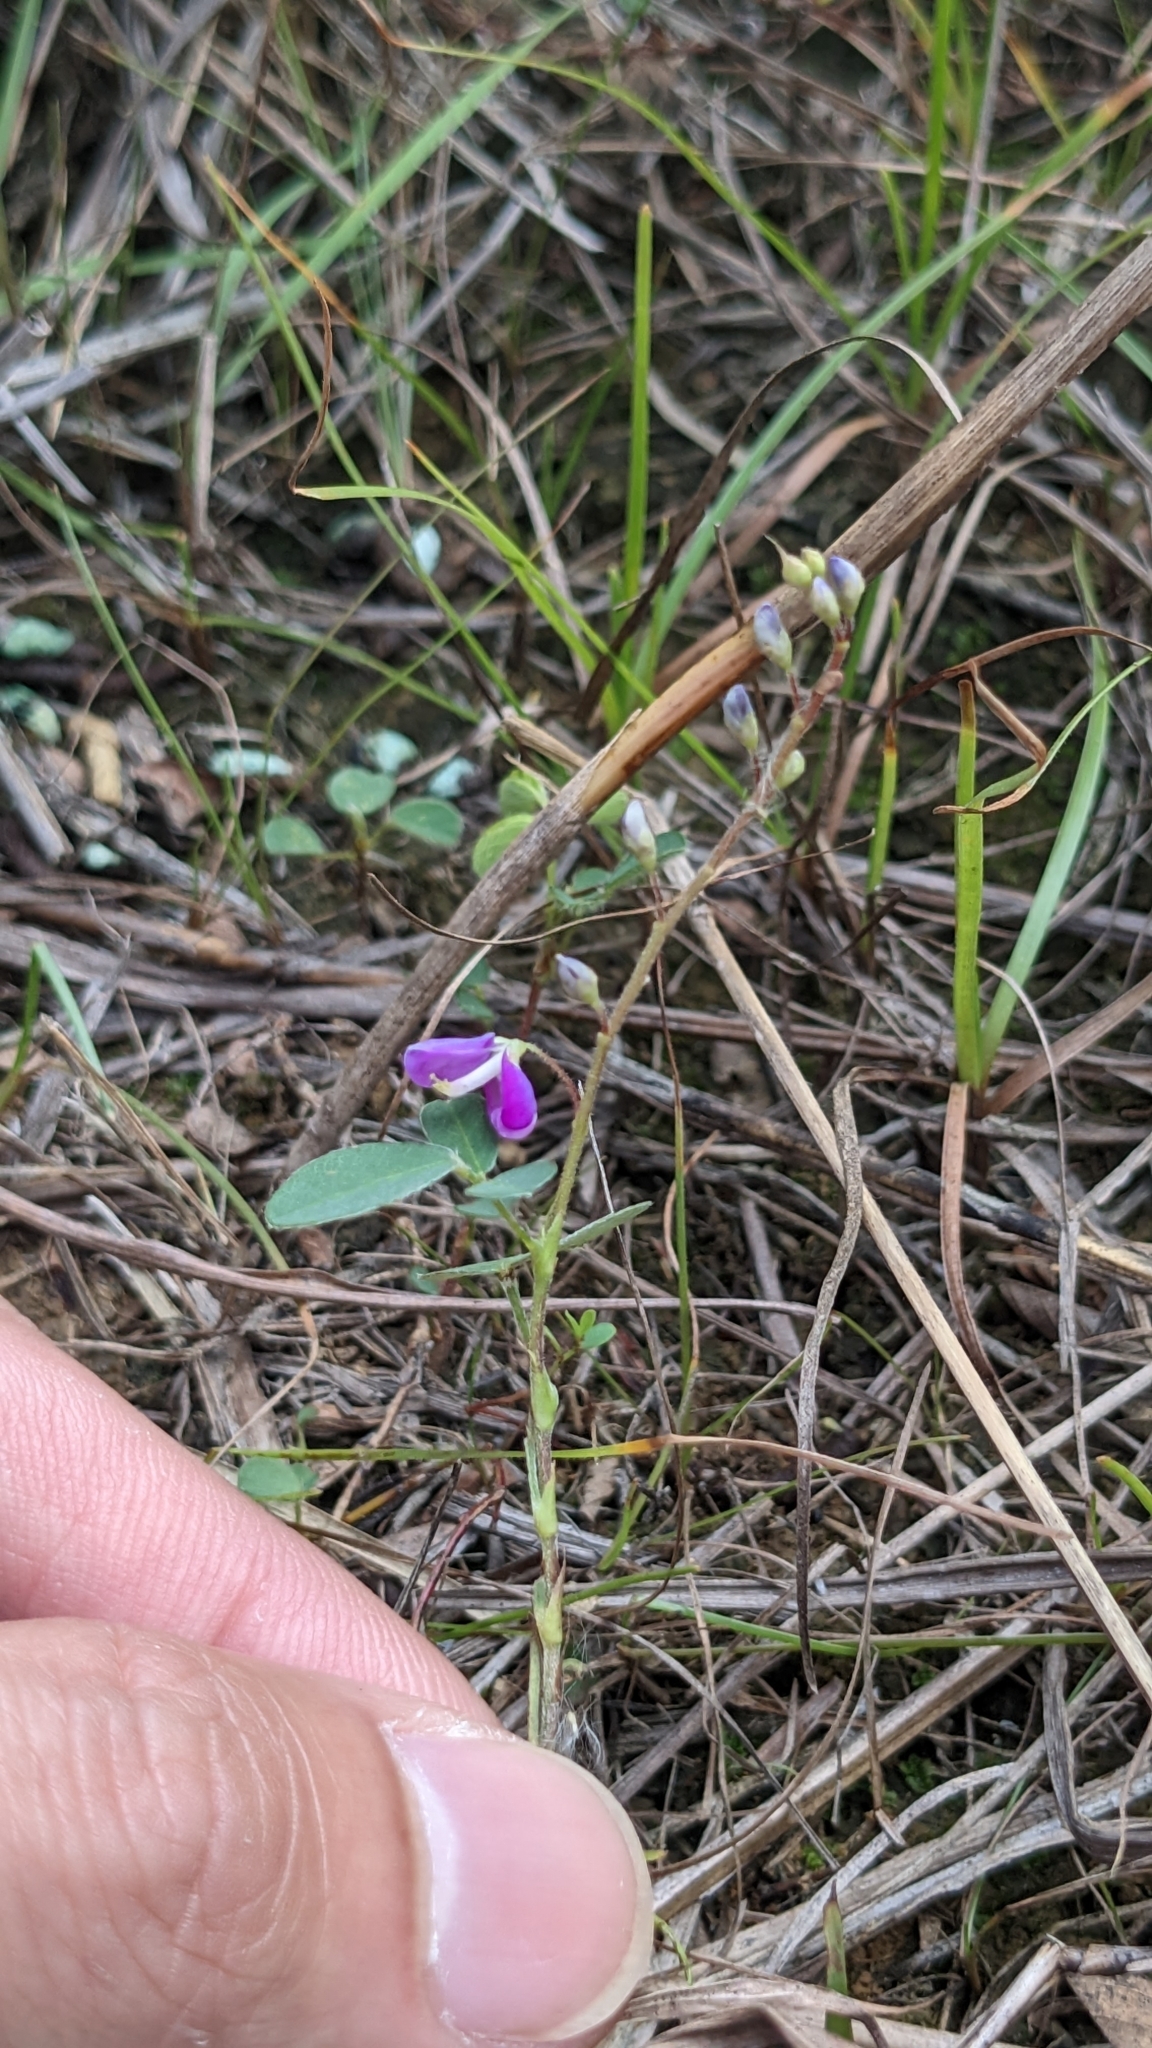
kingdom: Plantae
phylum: Tracheophyta
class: Magnoliopsida
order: Fabales
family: Fabaceae
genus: Grona
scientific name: Grona heterocarpos
